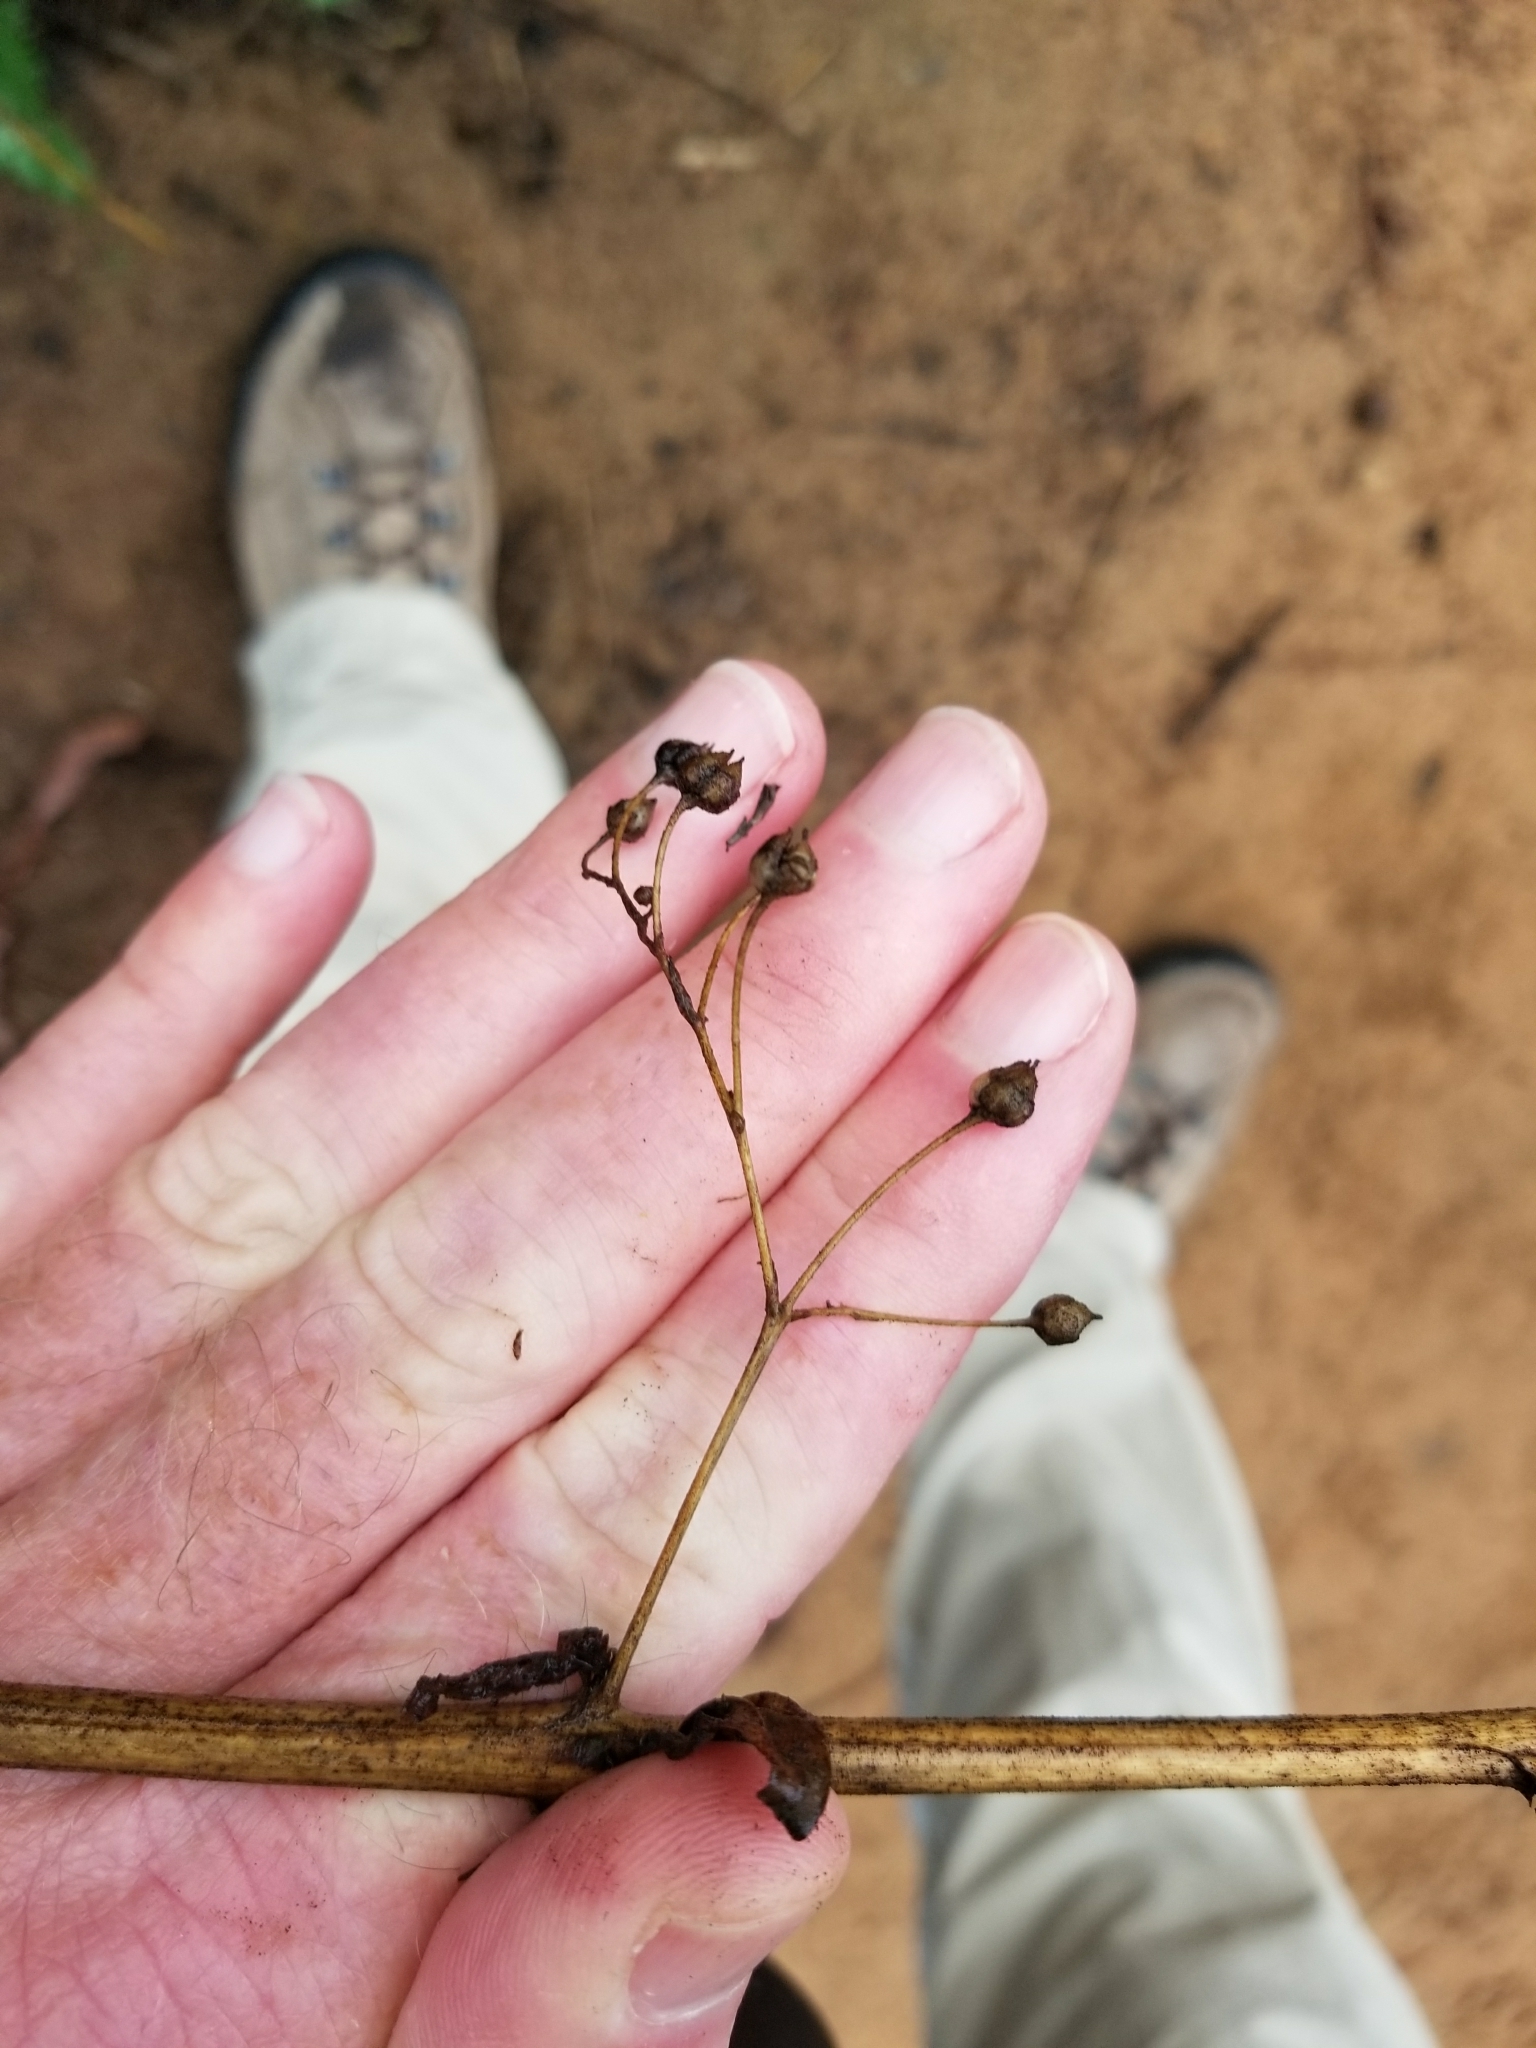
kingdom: Plantae
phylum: Tracheophyta
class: Magnoliopsida
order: Lamiales
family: Scrophulariaceae
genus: Scrophularia
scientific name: Scrophularia californica
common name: California figwort
